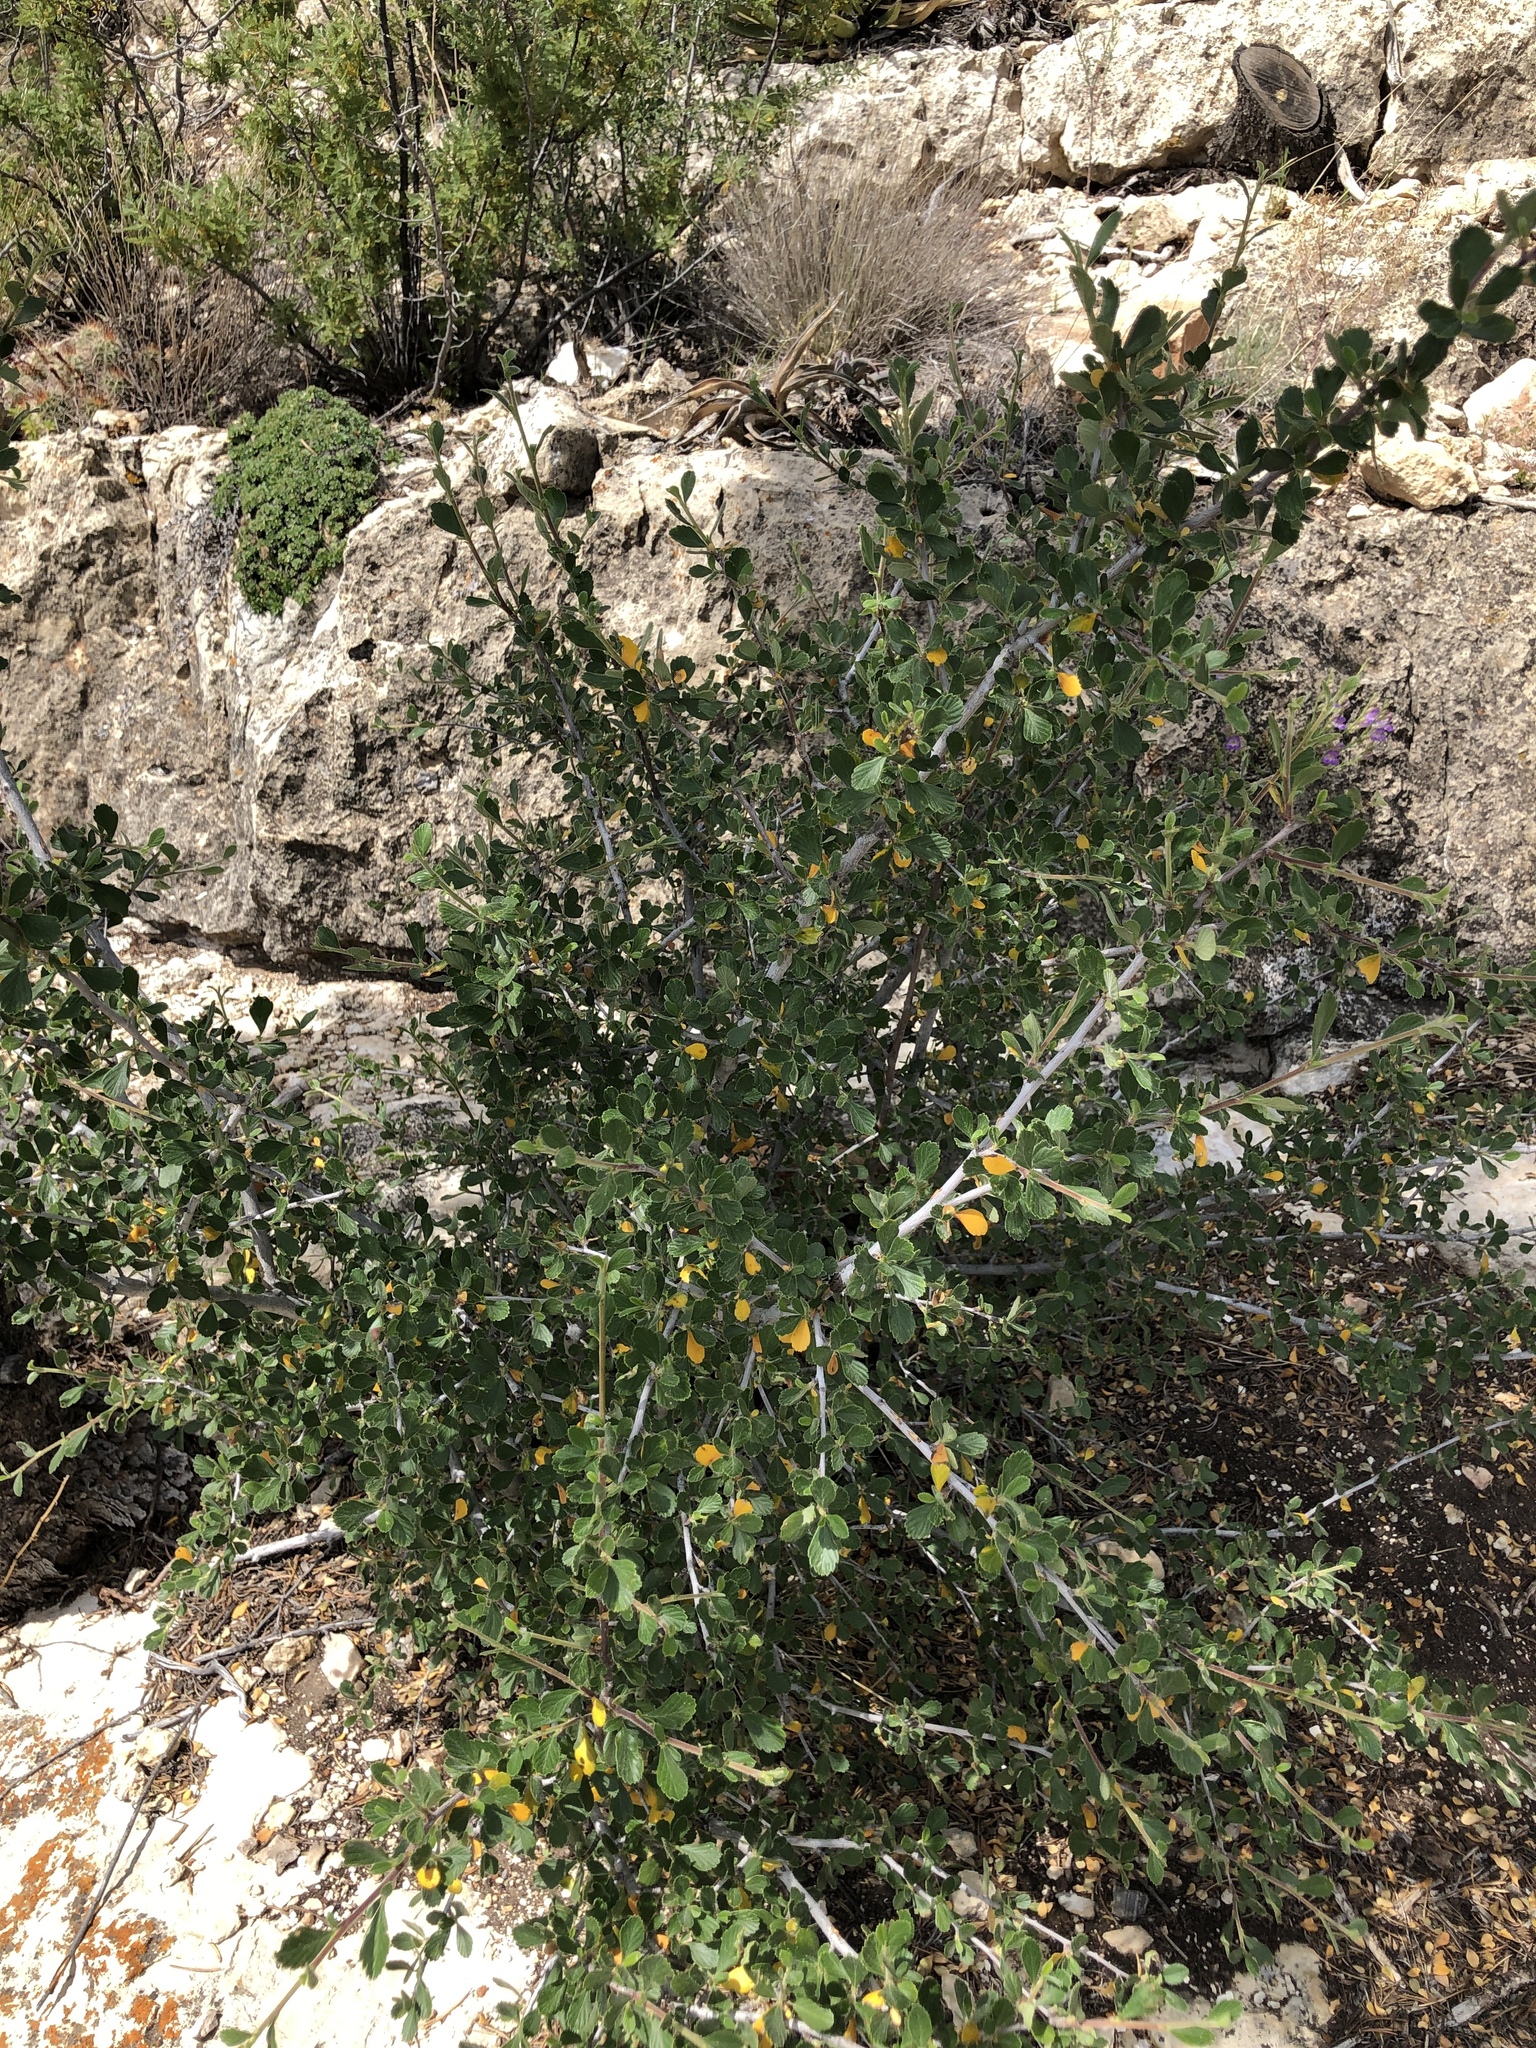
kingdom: Plantae
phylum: Tracheophyta
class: Magnoliopsida
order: Rosales
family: Rosaceae
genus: Cercocarpus
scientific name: Cercocarpus montanus
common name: Alder-leaf cercocarpus
